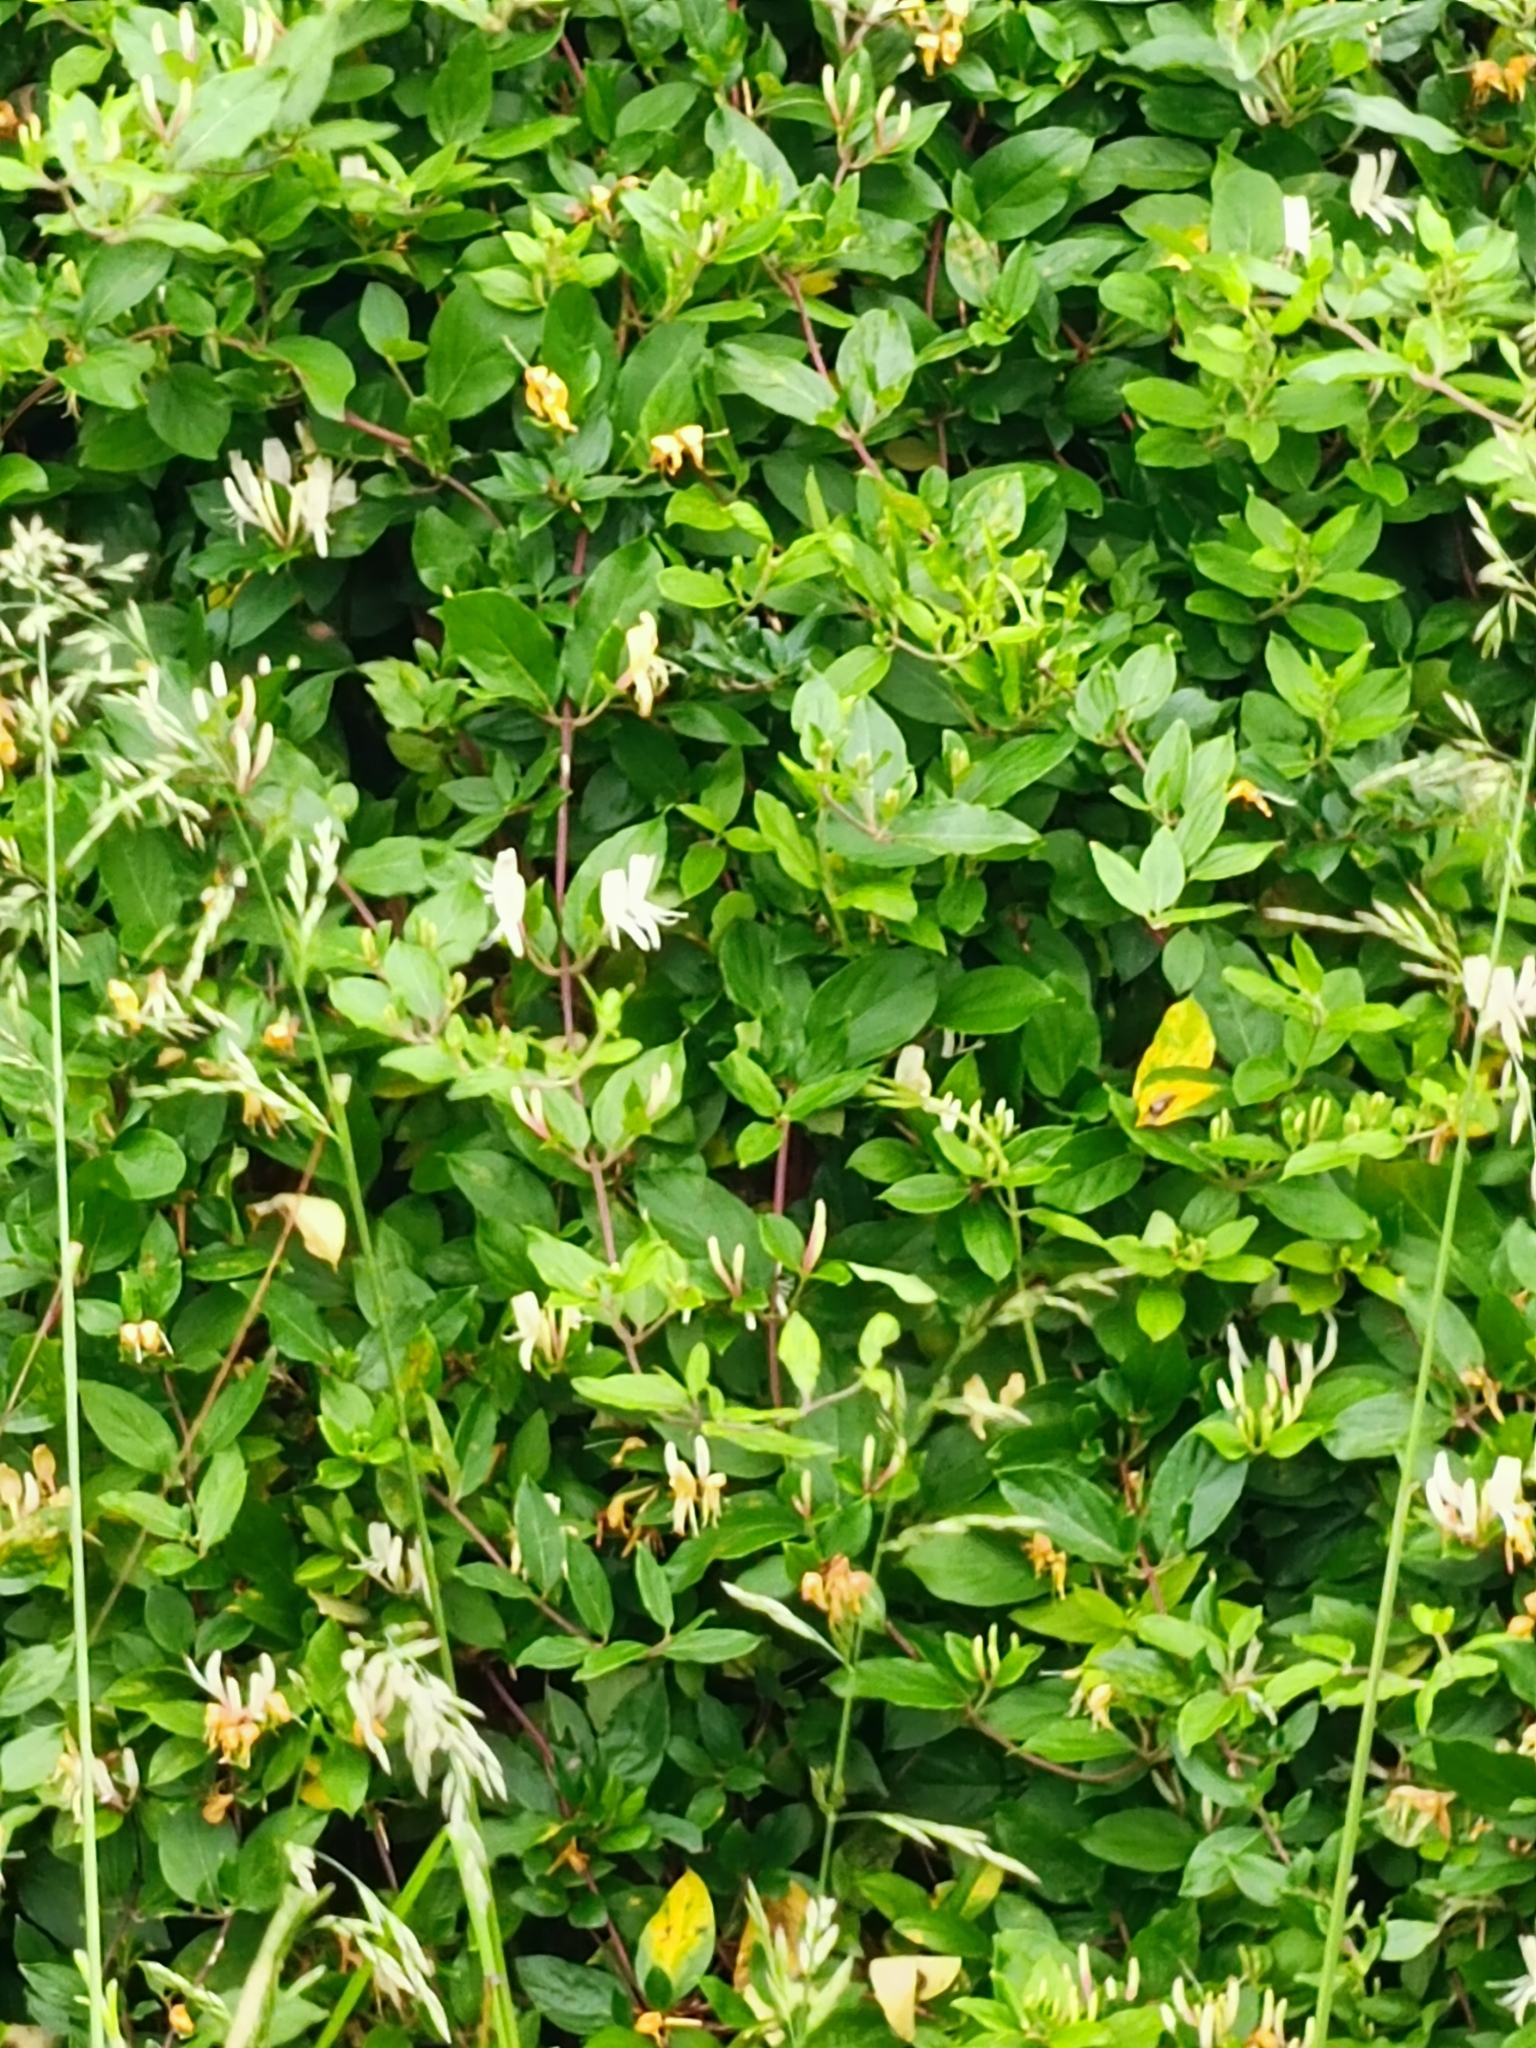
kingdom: Plantae
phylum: Tracheophyta
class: Magnoliopsida
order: Dipsacales
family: Caprifoliaceae
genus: Lonicera
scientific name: Lonicera japonica
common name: Japanese honeysuckle
